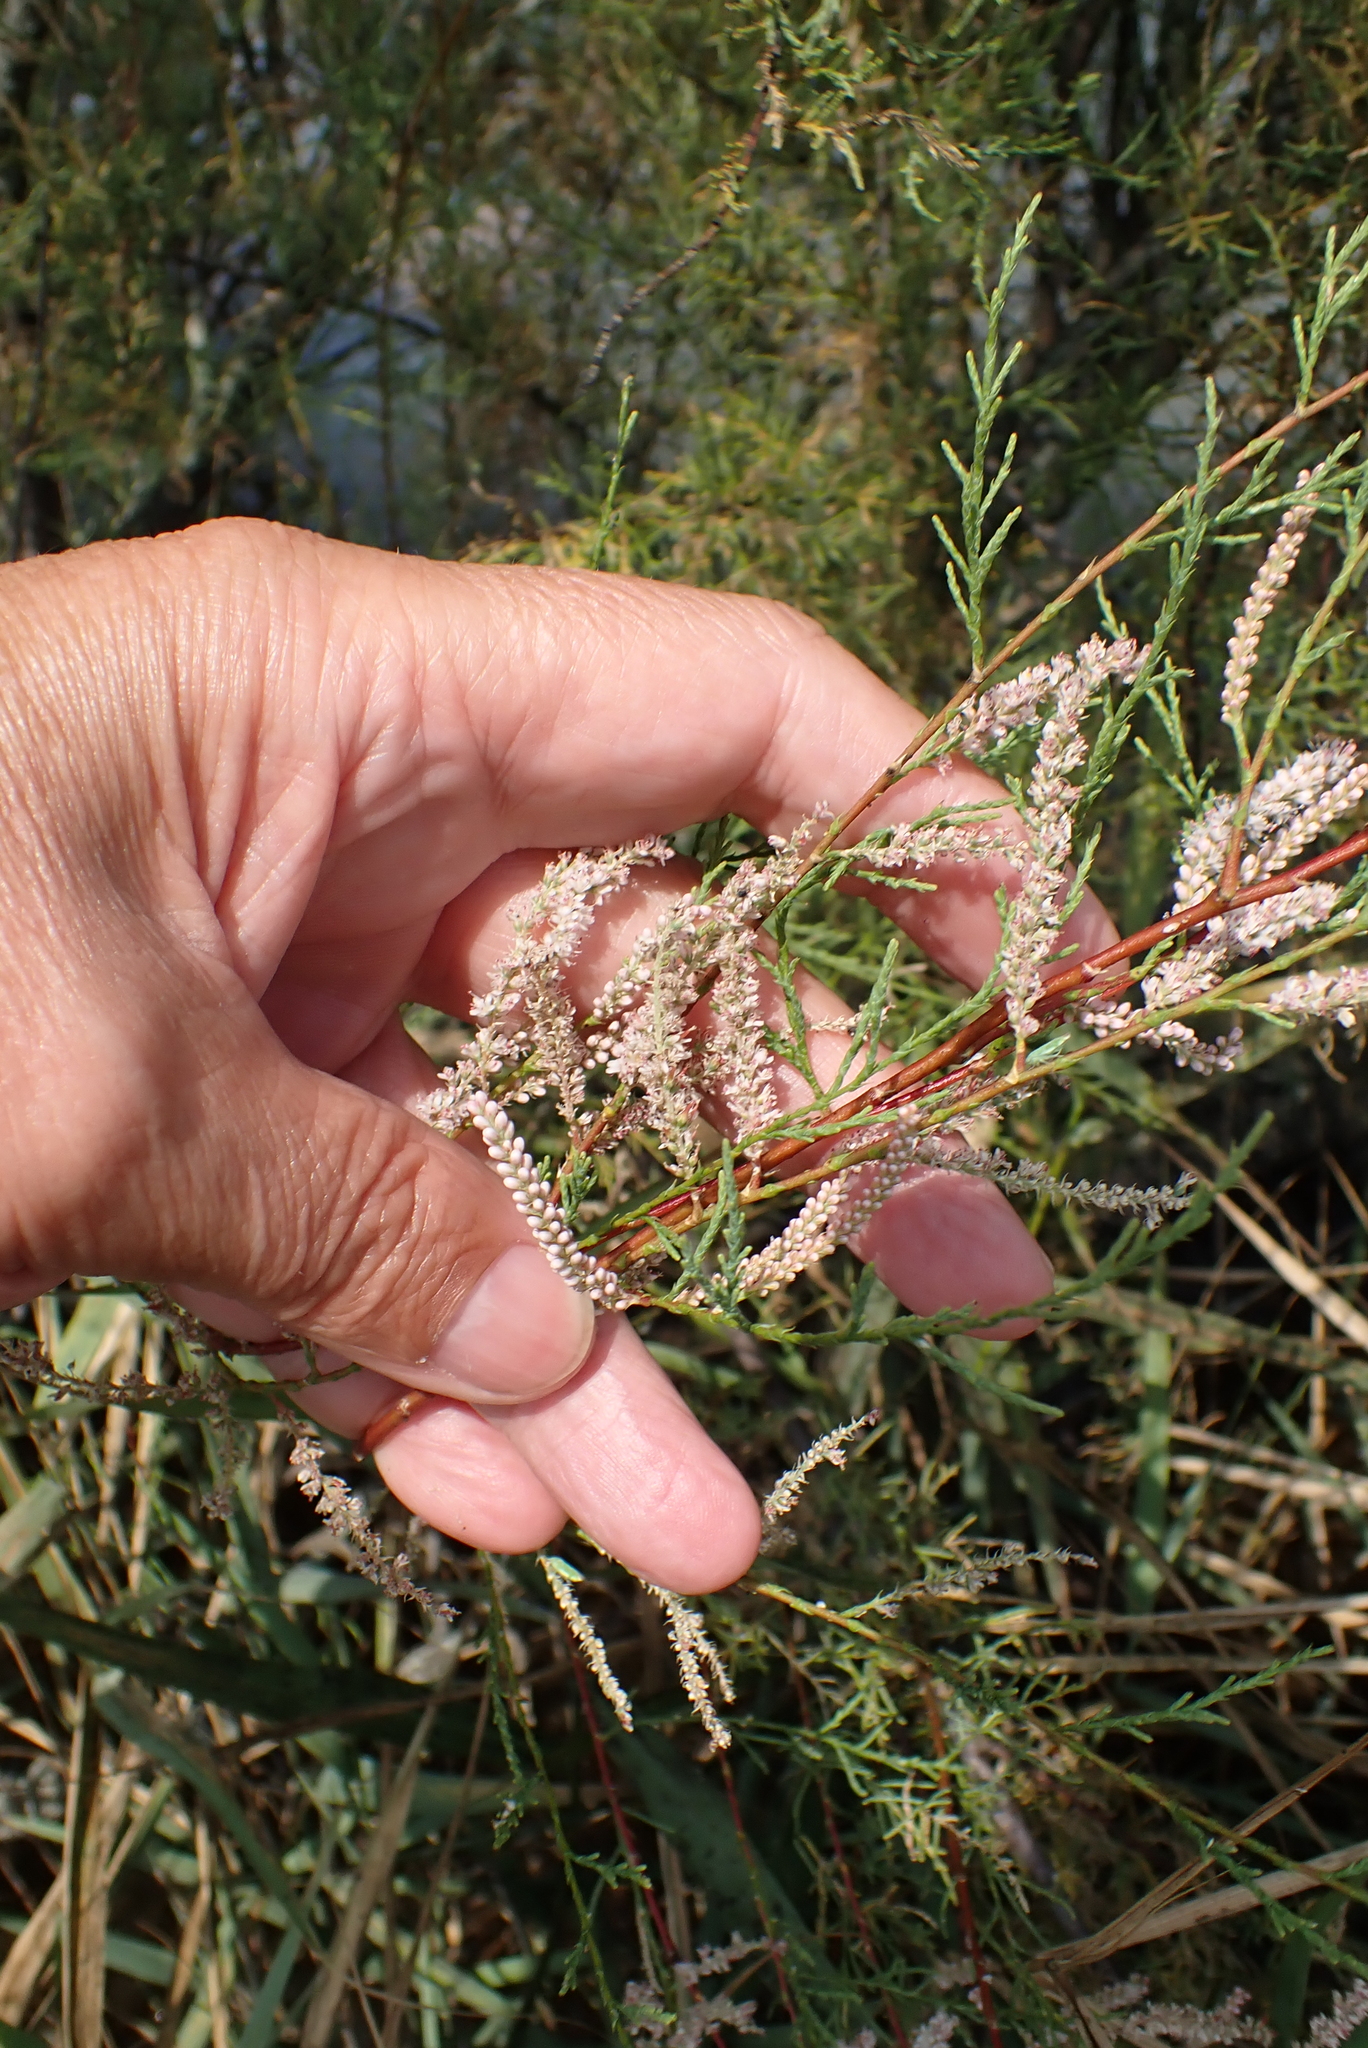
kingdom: Plantae
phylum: Tracheophyta
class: Magnoliopsida
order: Caryophyllales
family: Tamaricaceae
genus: Tamarix
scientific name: Tamarix gallica
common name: Tamarisk
